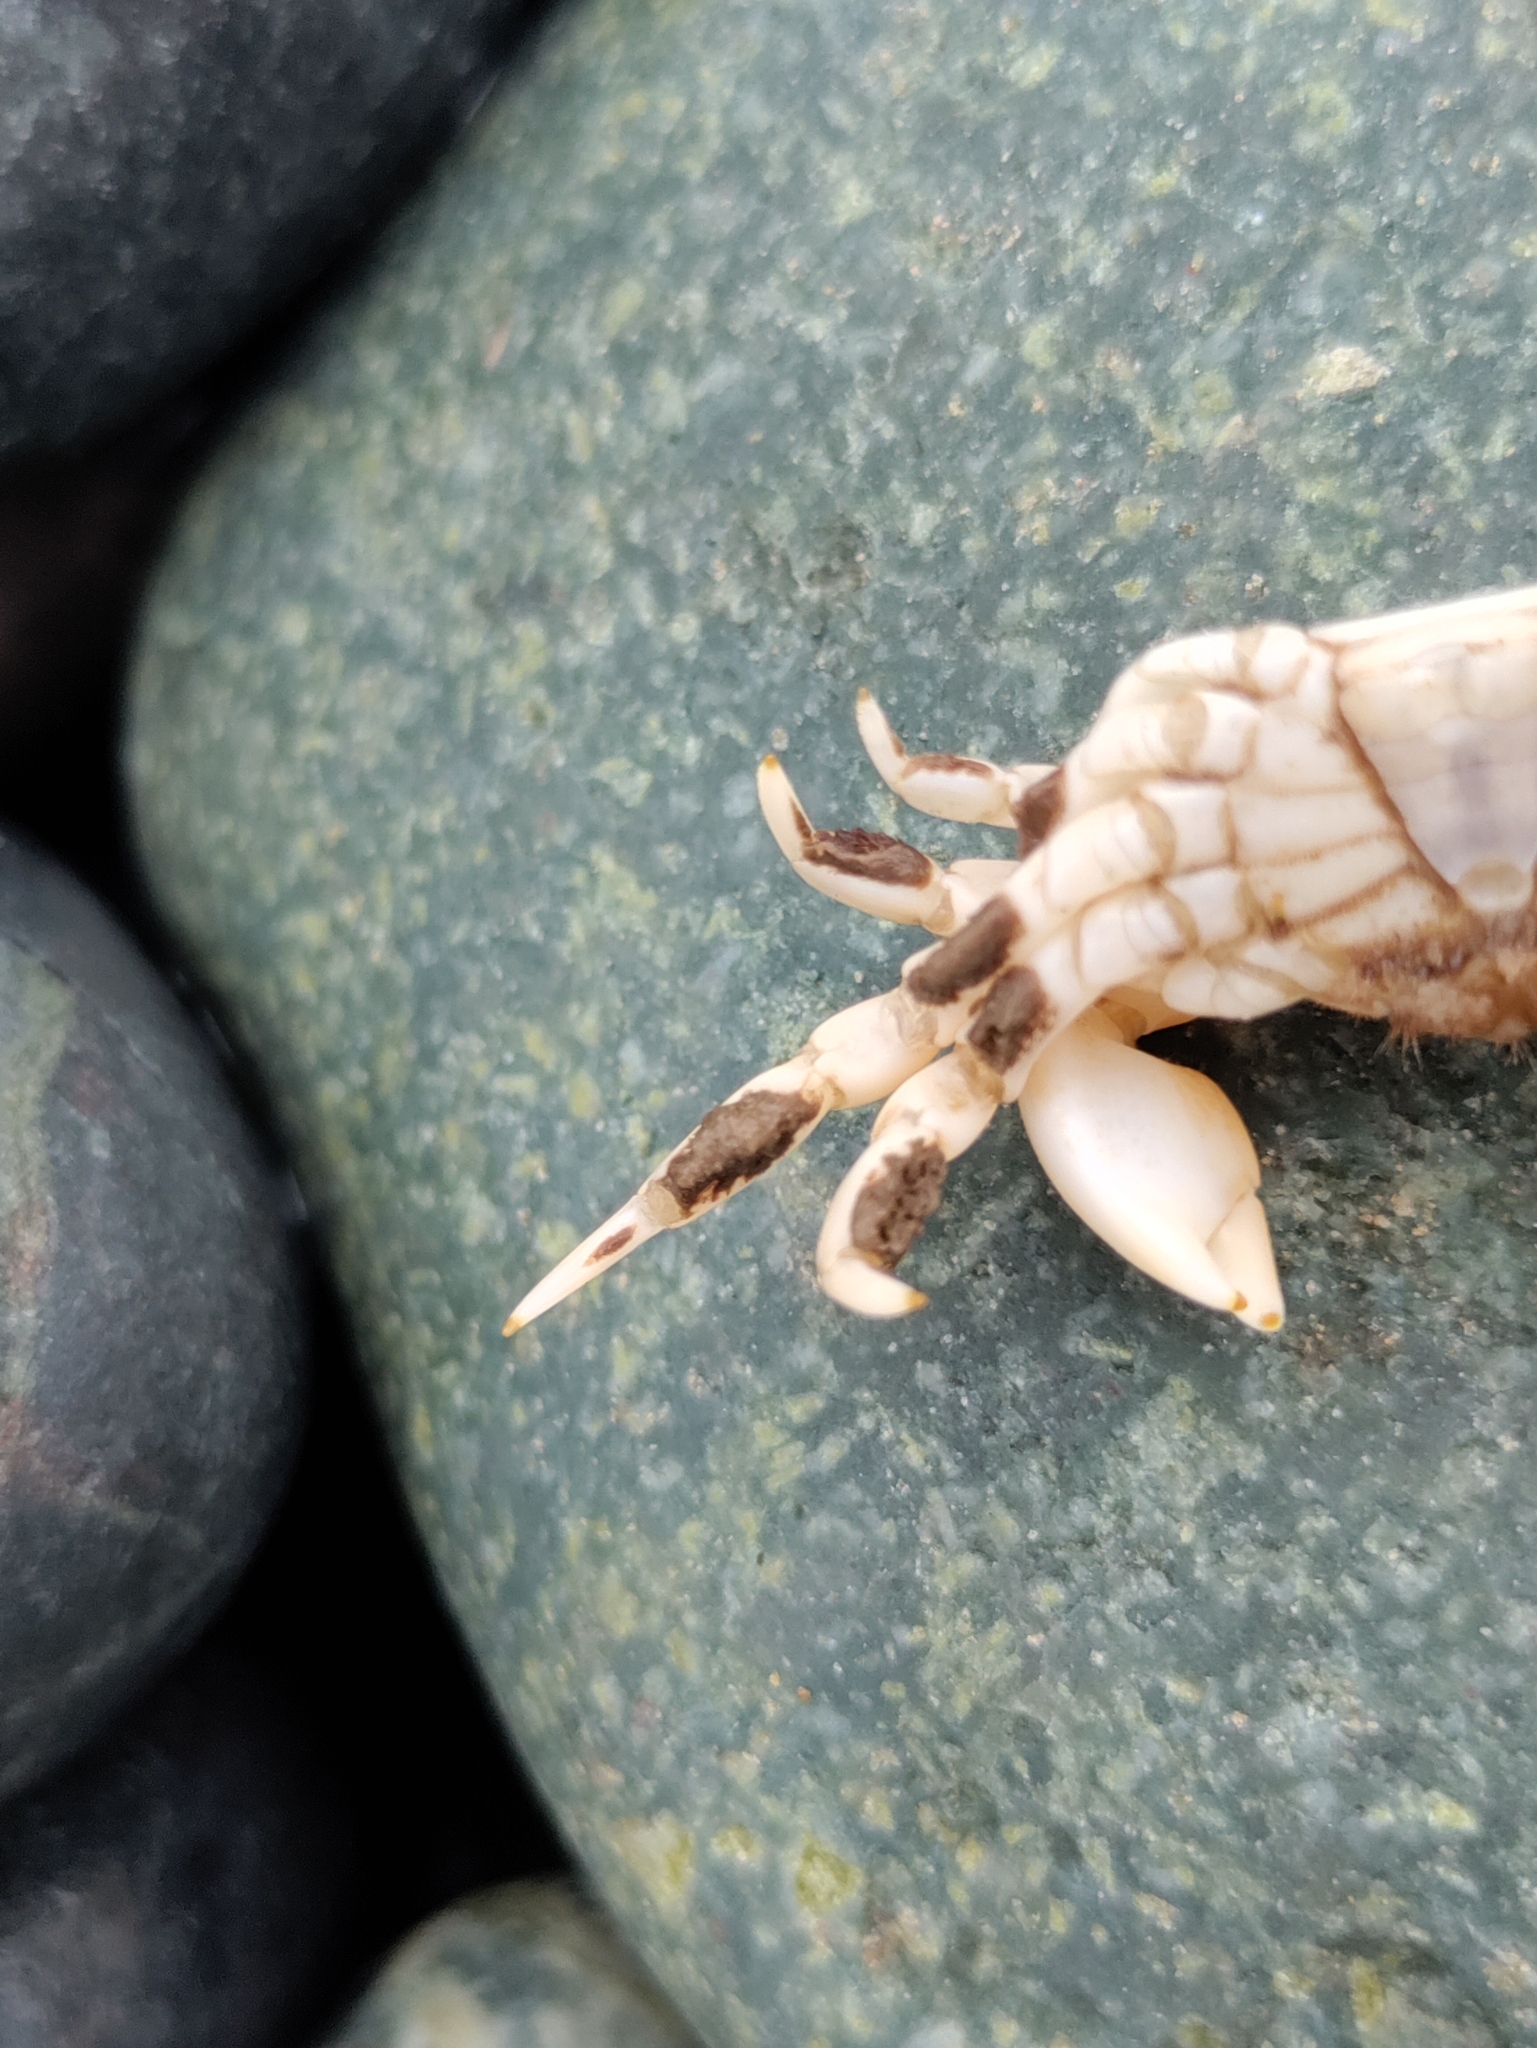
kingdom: Animalia
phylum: Arthropoda
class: Malacostraca
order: Decapoda
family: Varunidae
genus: Pinnotherelia
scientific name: Pinnotherelia laevigata
